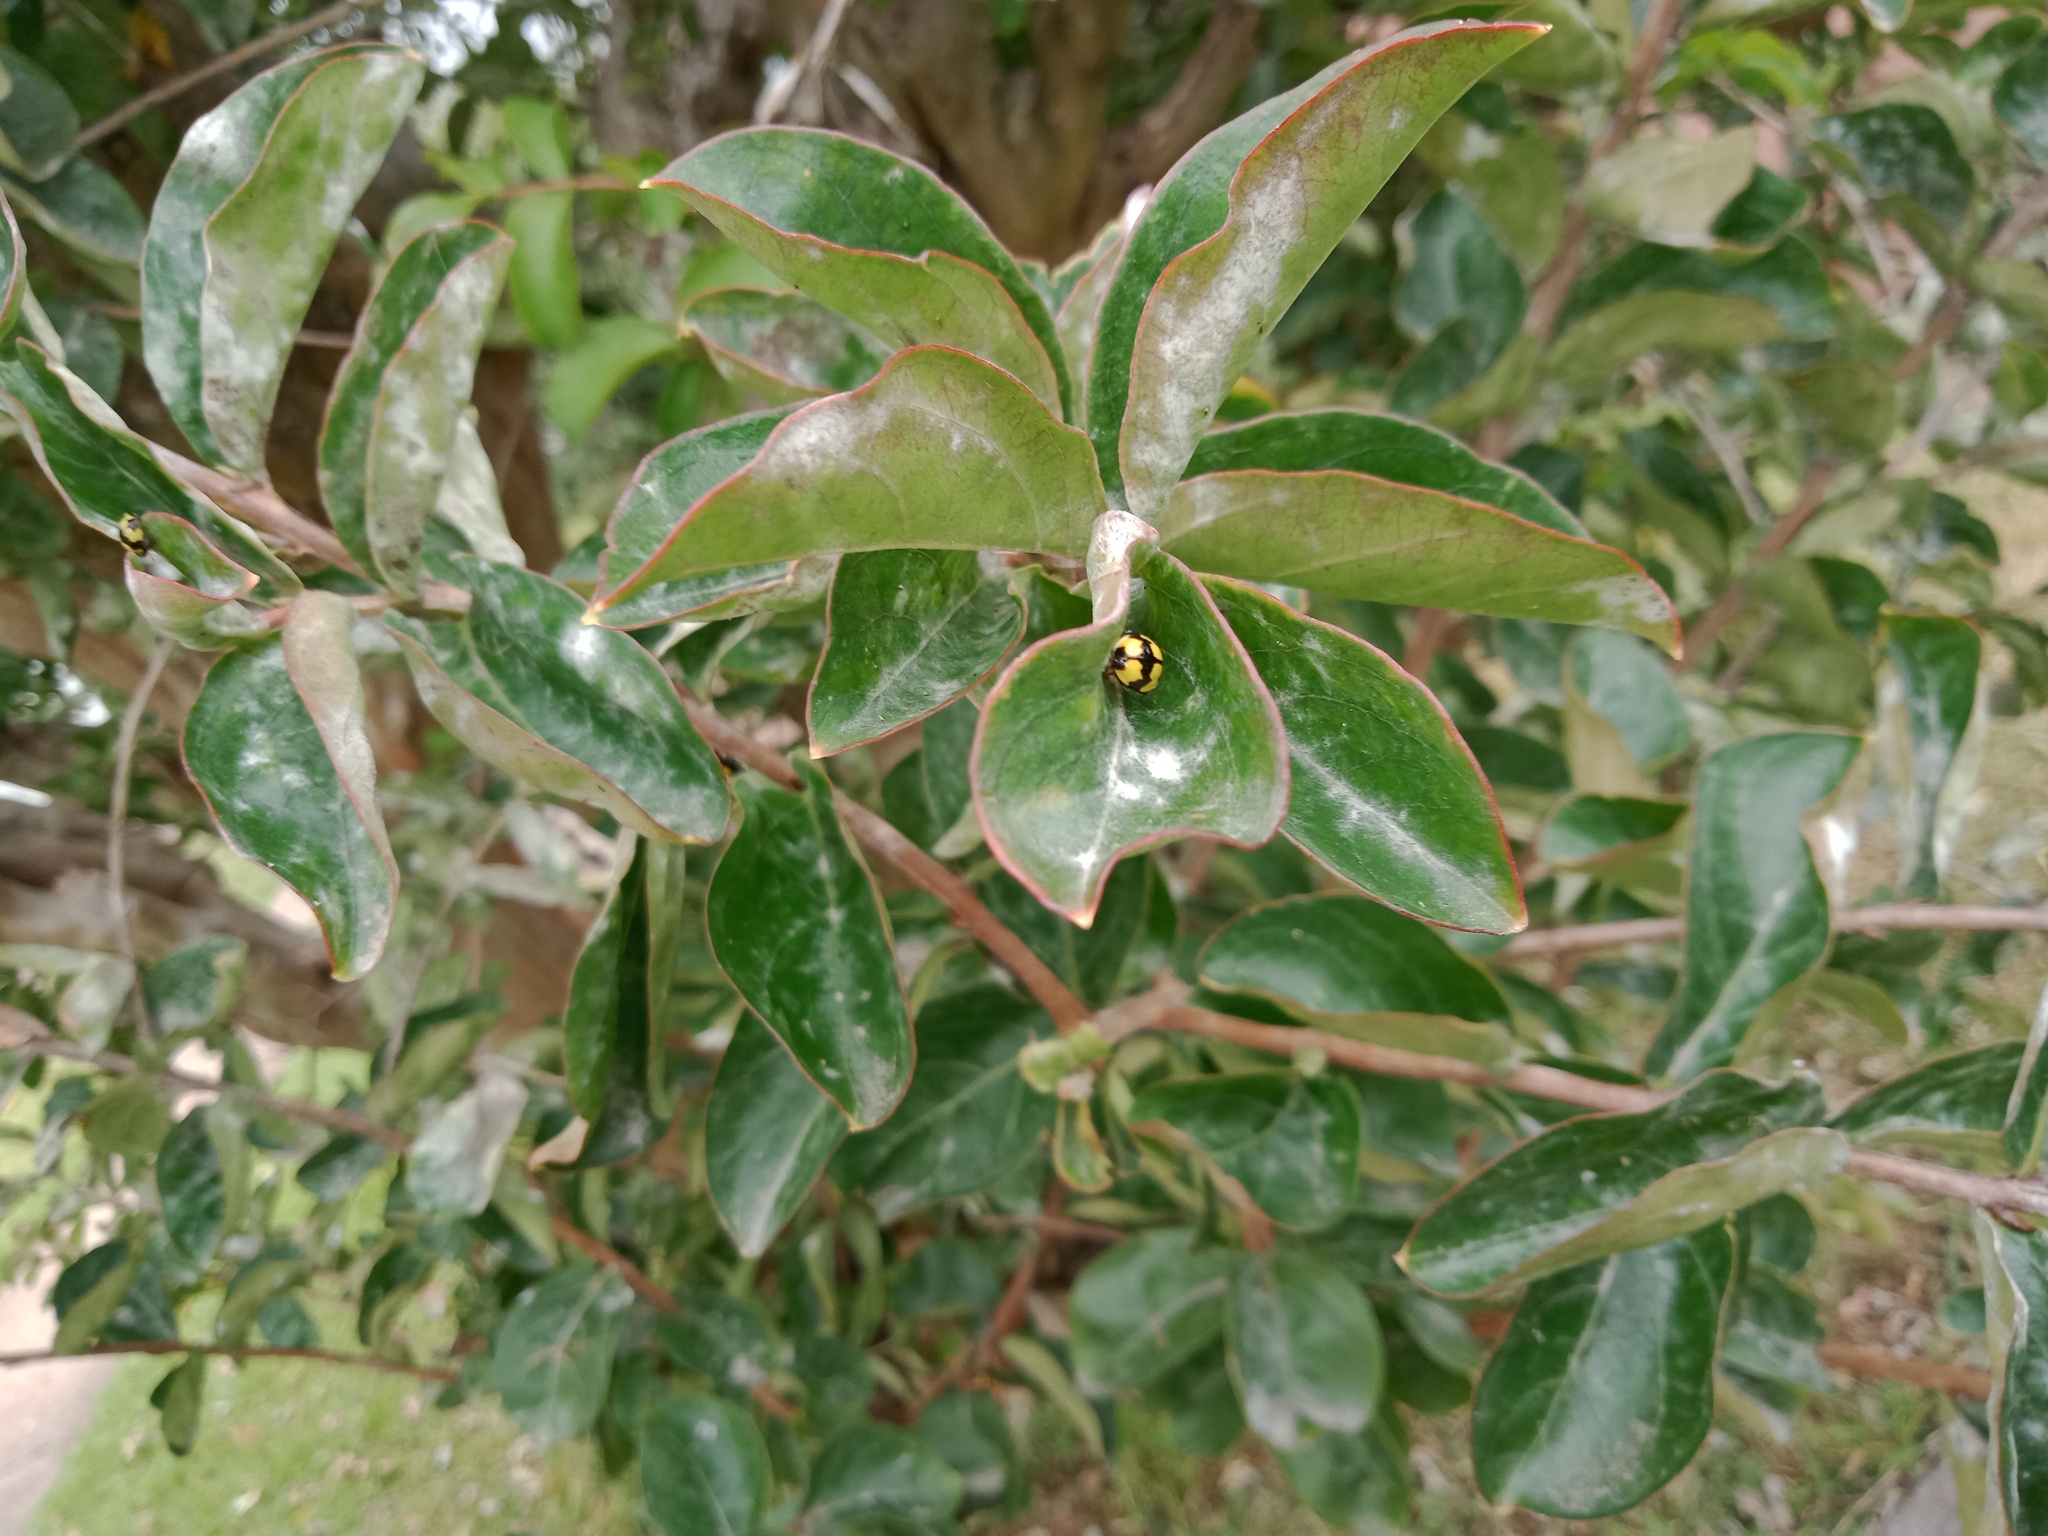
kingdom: Animalia
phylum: Arthropoda
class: Insecta
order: Coleoptera
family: Coccinellidae
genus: Illeis
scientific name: Illeis galbula
